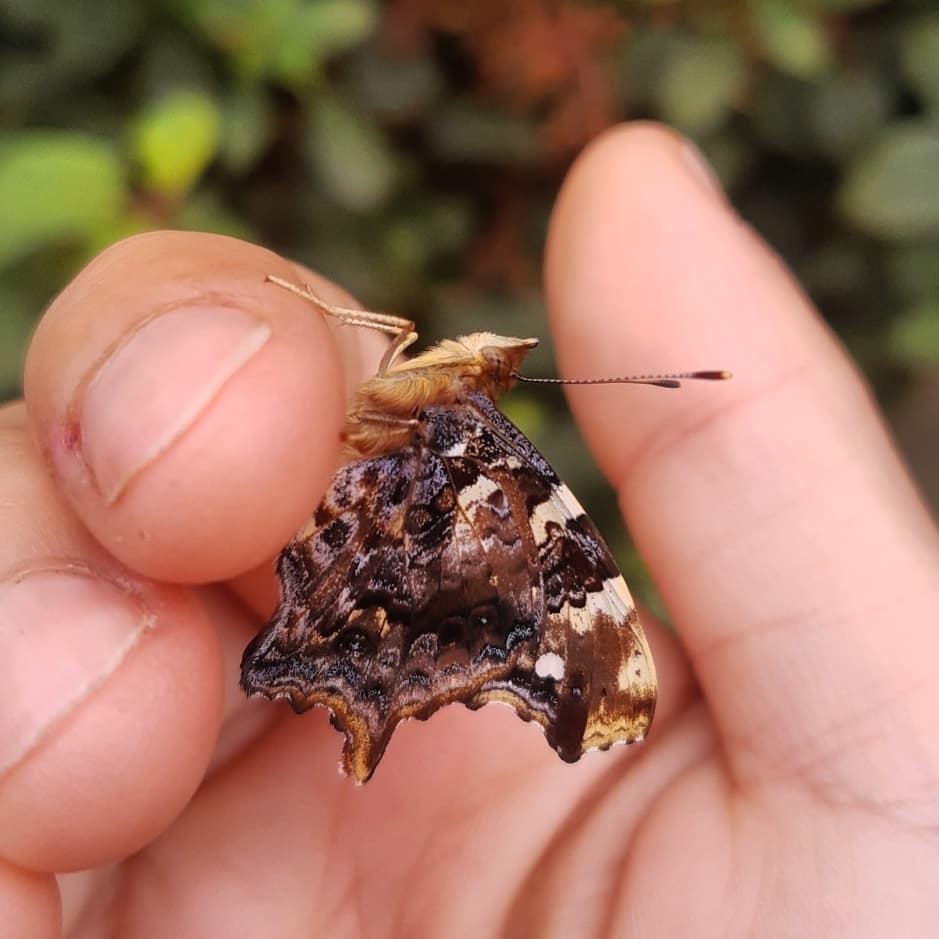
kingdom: Animalia
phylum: Arthropoda
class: Insecta
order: Lepidoptera
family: Nymphalidae
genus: Hypanartia
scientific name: Hypanartia bella
